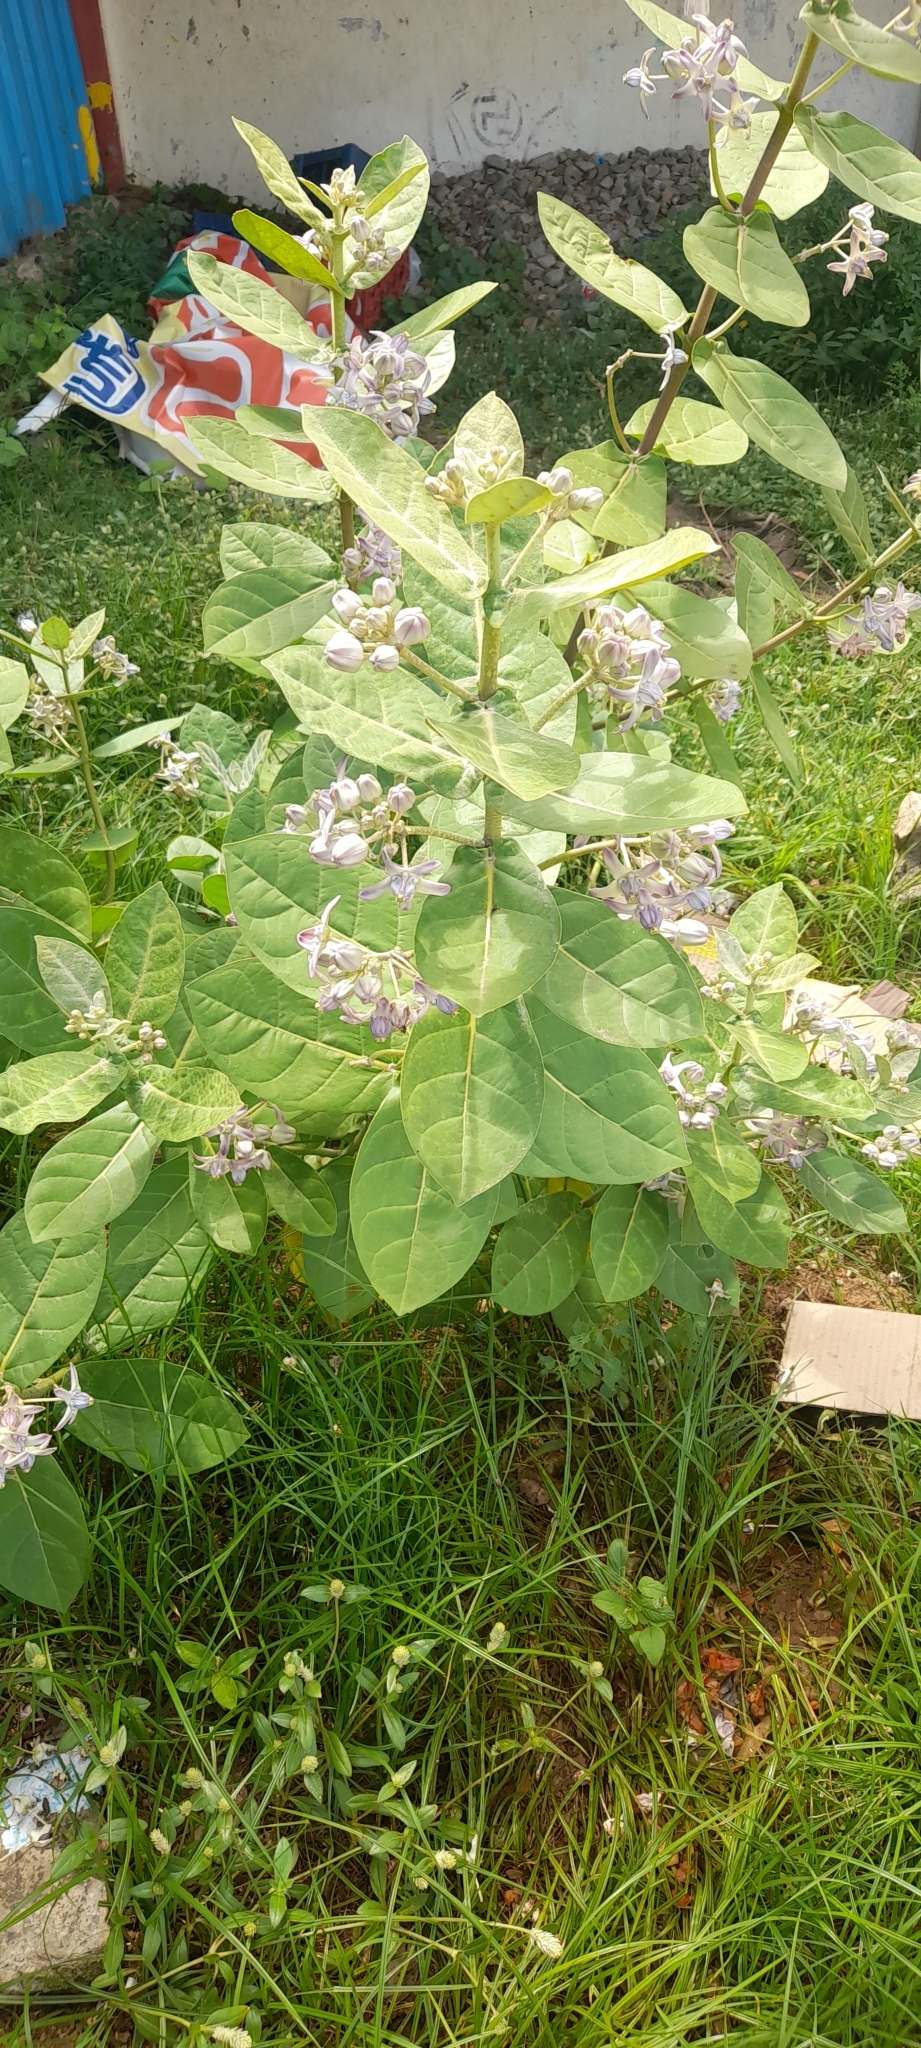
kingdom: Plantae
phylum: Tracheophyta
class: Magnoliopsida
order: Gentianales
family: Apocynaceae
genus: Calotropis
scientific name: Calotropis gigantea
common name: Crown flower
